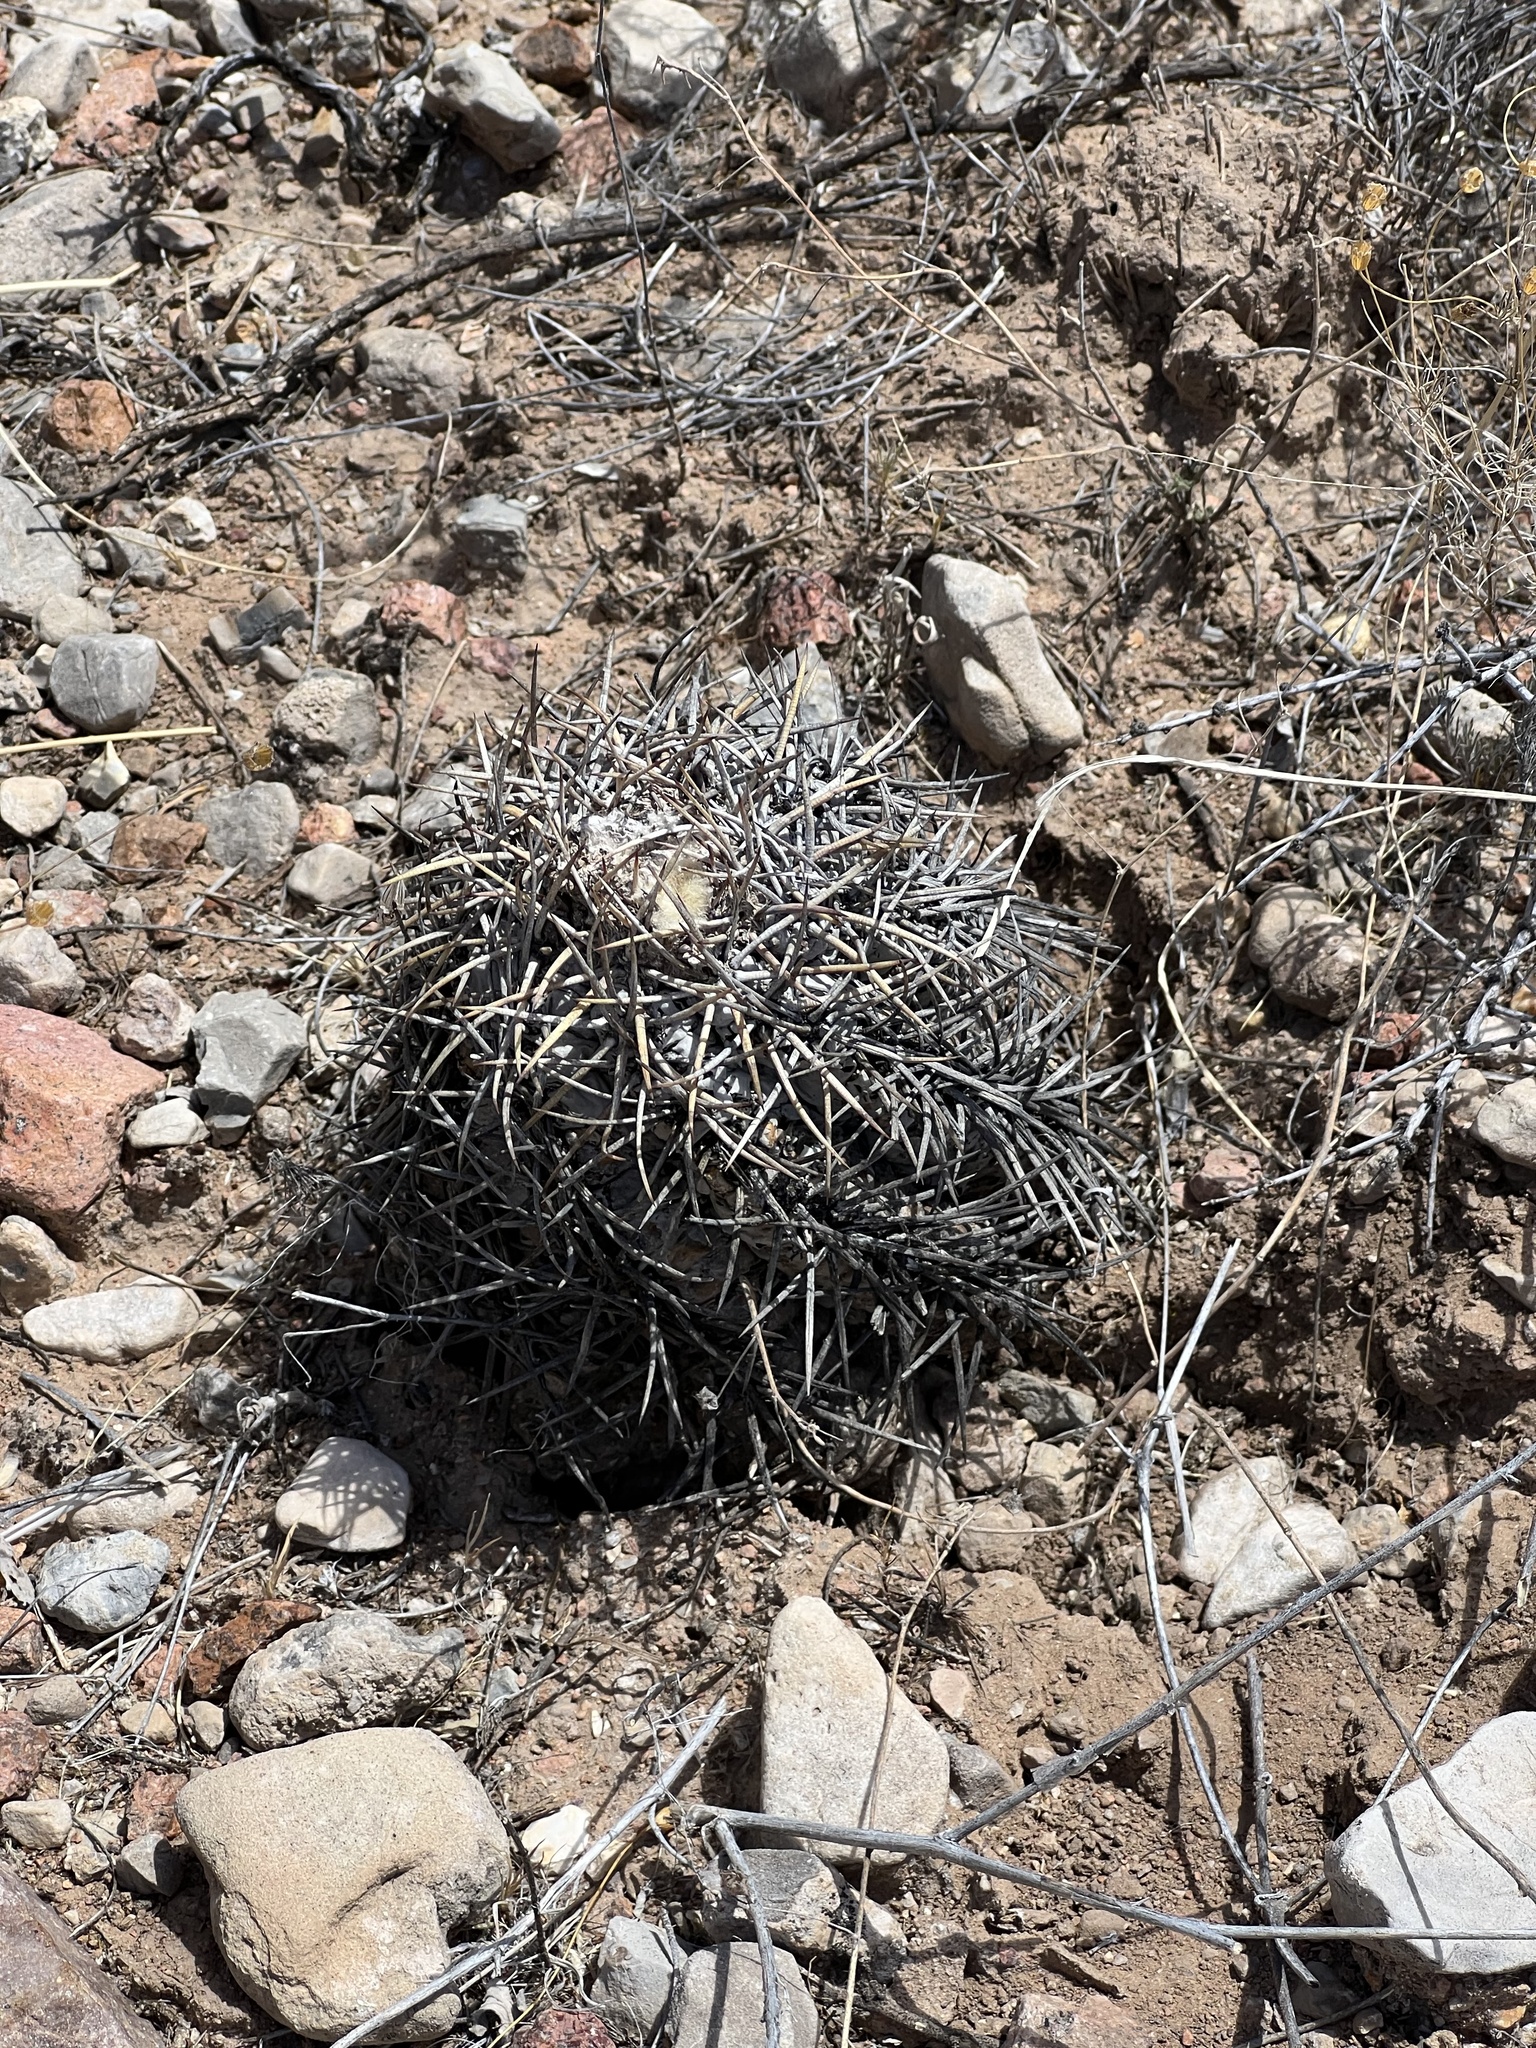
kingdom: Plantae
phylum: Tracheophyta
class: Magnoliopsida
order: Caryophyllales
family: Cactaceae
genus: Echinocactus
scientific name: Echinocactus horizonthalonius
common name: Devilshead
